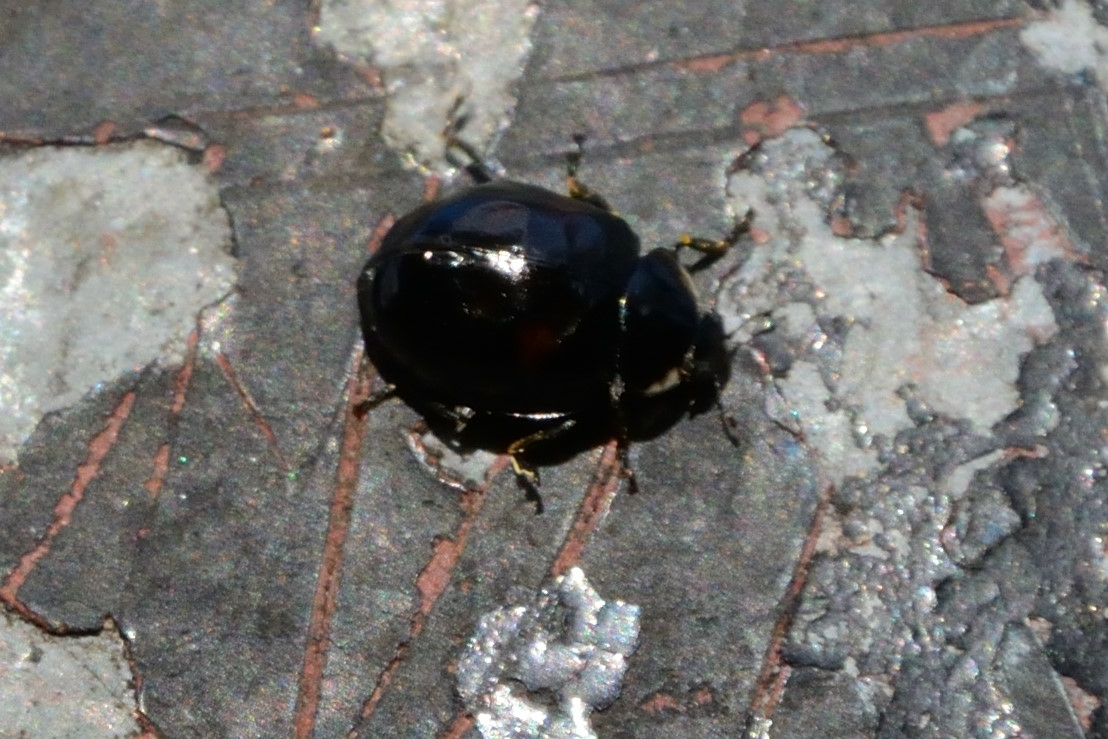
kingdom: Animalia
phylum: Arthropoda
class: Insecta
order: Coleoptera
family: Coccinellidae
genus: Harmonia
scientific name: Harmonia axyridis
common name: Harlequin ladybird
